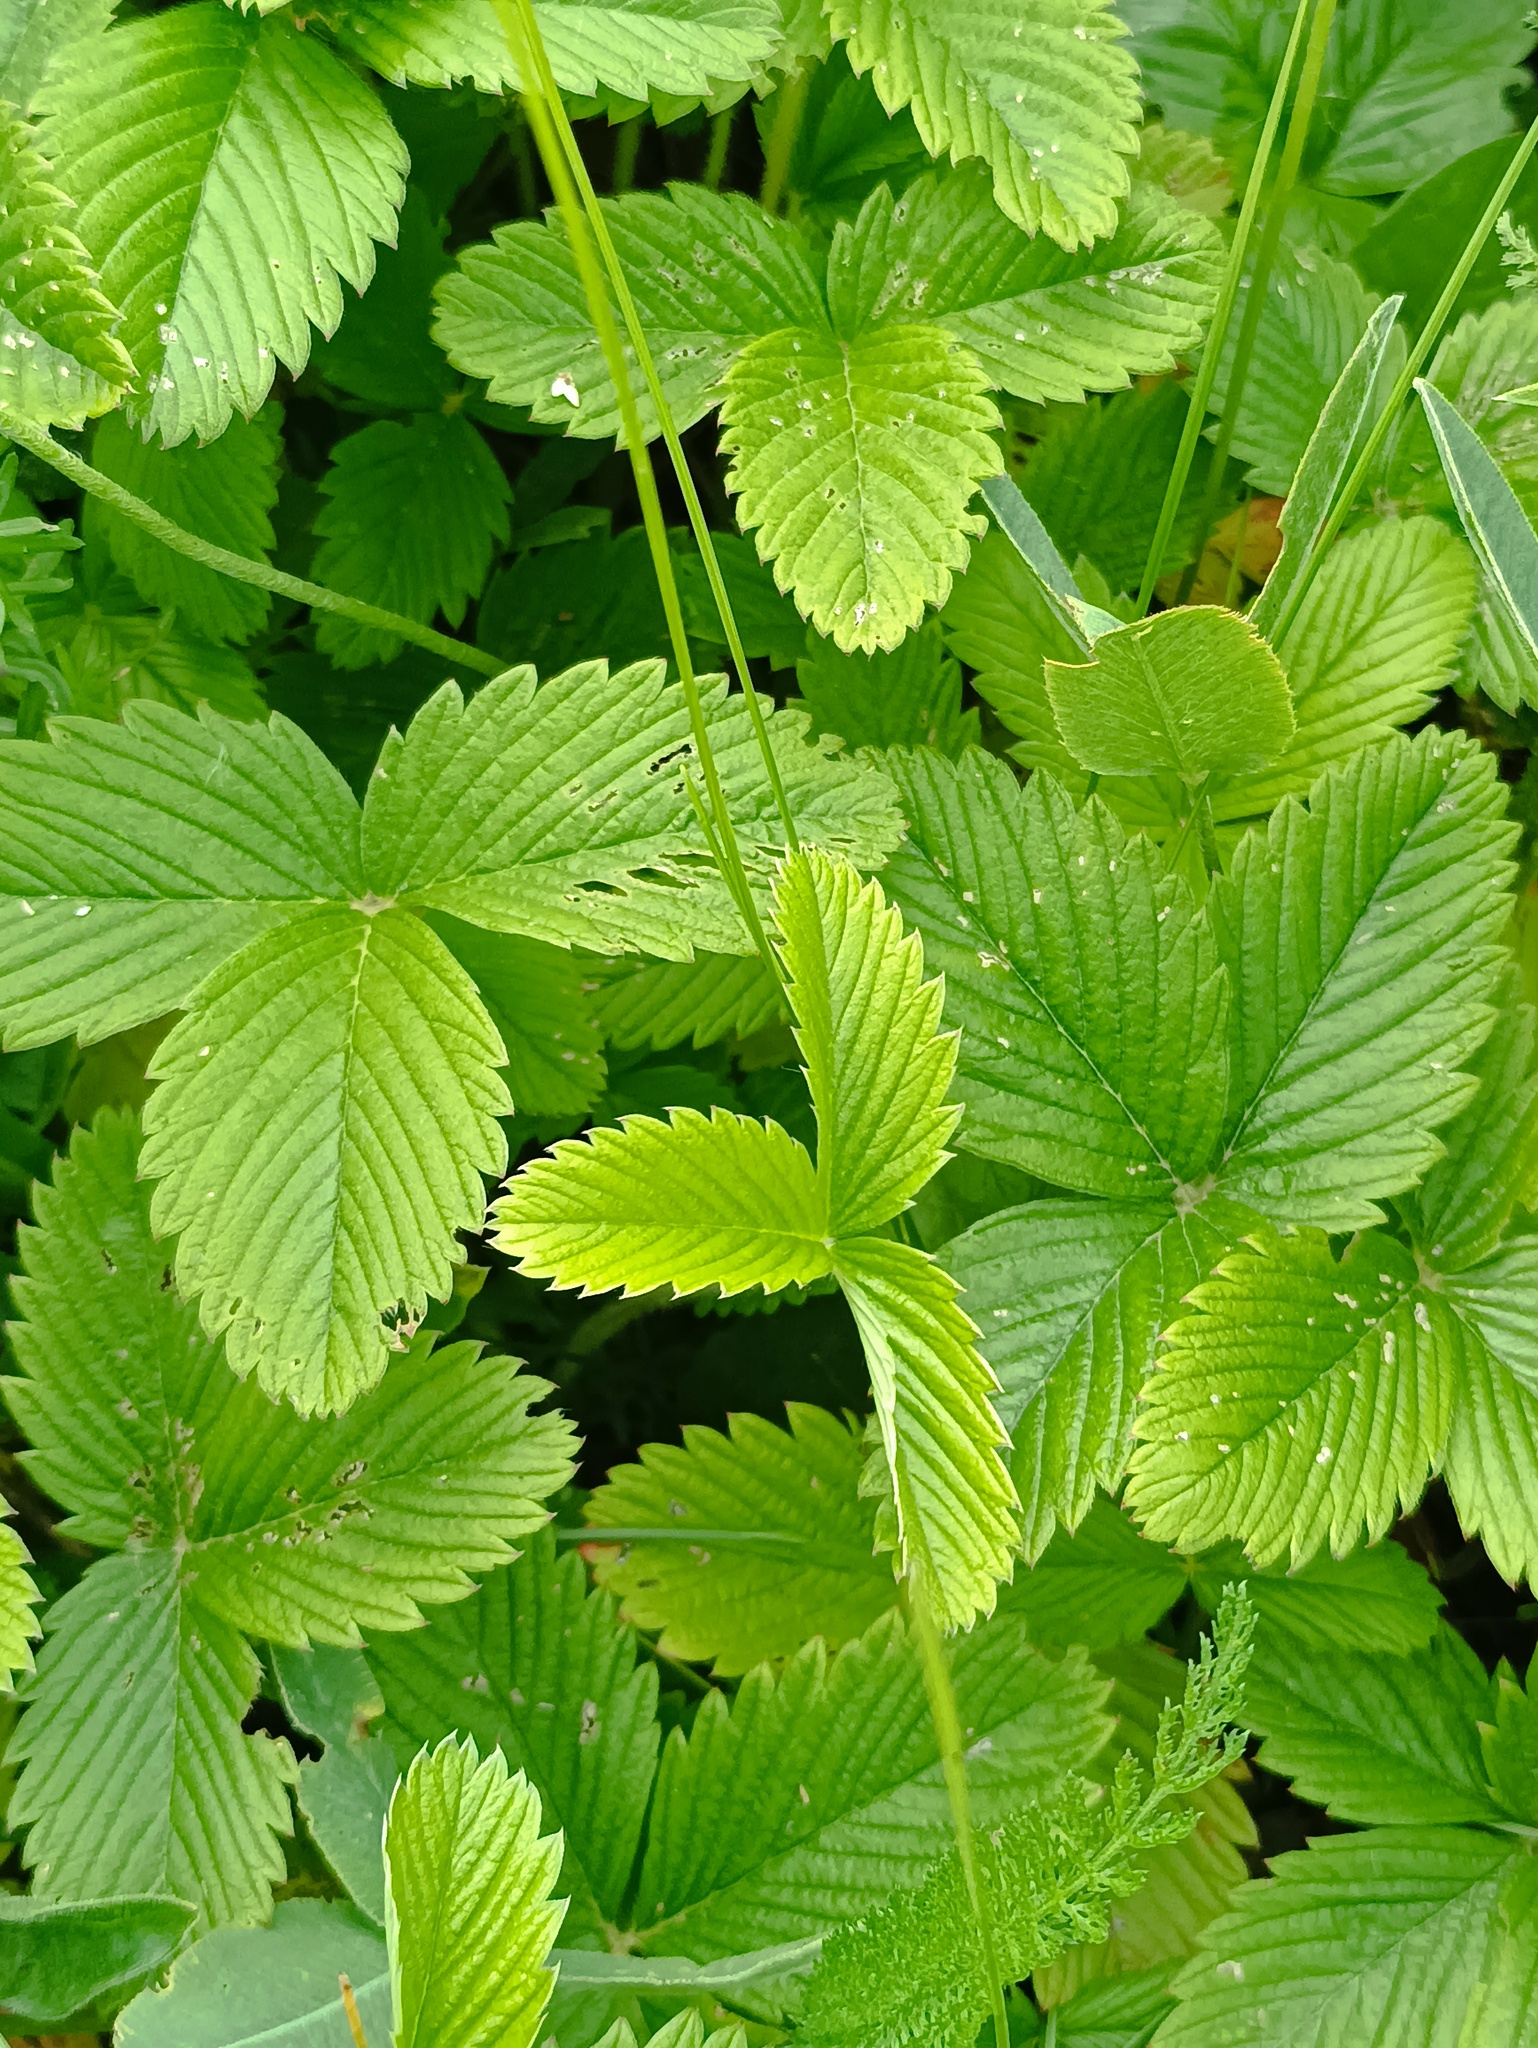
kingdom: Plantae
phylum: Tracheophyta
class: Magnoliopsida
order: Rosales
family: Rosaceae
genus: Fragaria
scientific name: Fragaria viridis
